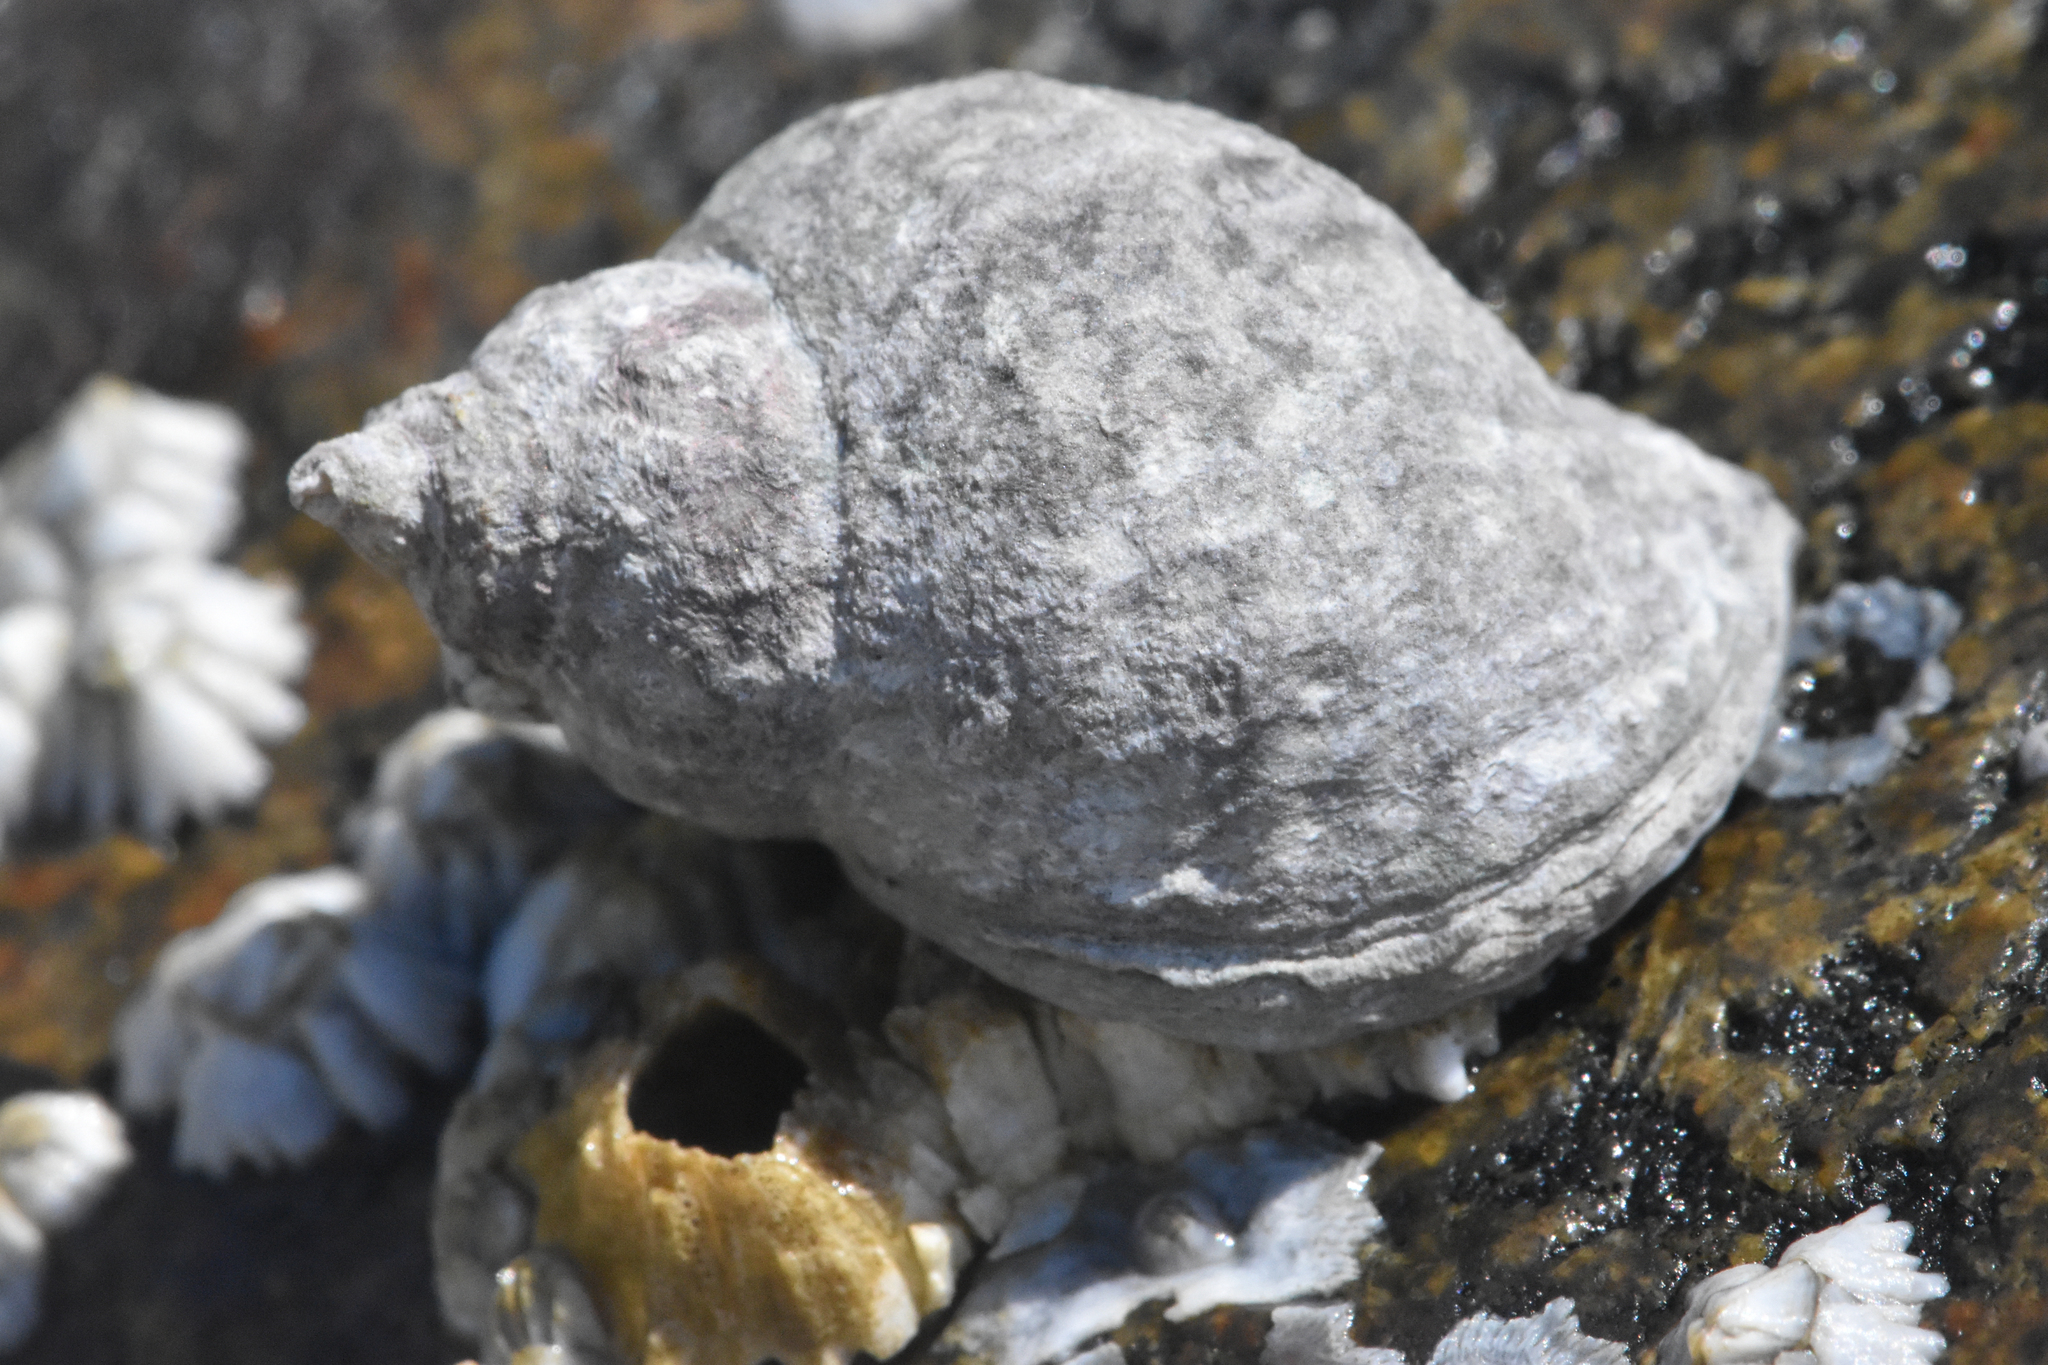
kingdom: Animalia
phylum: Mollusca
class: Gastropoda
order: Neogastropoda
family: Muricidae
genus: Nucella
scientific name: Nucella ostrina
